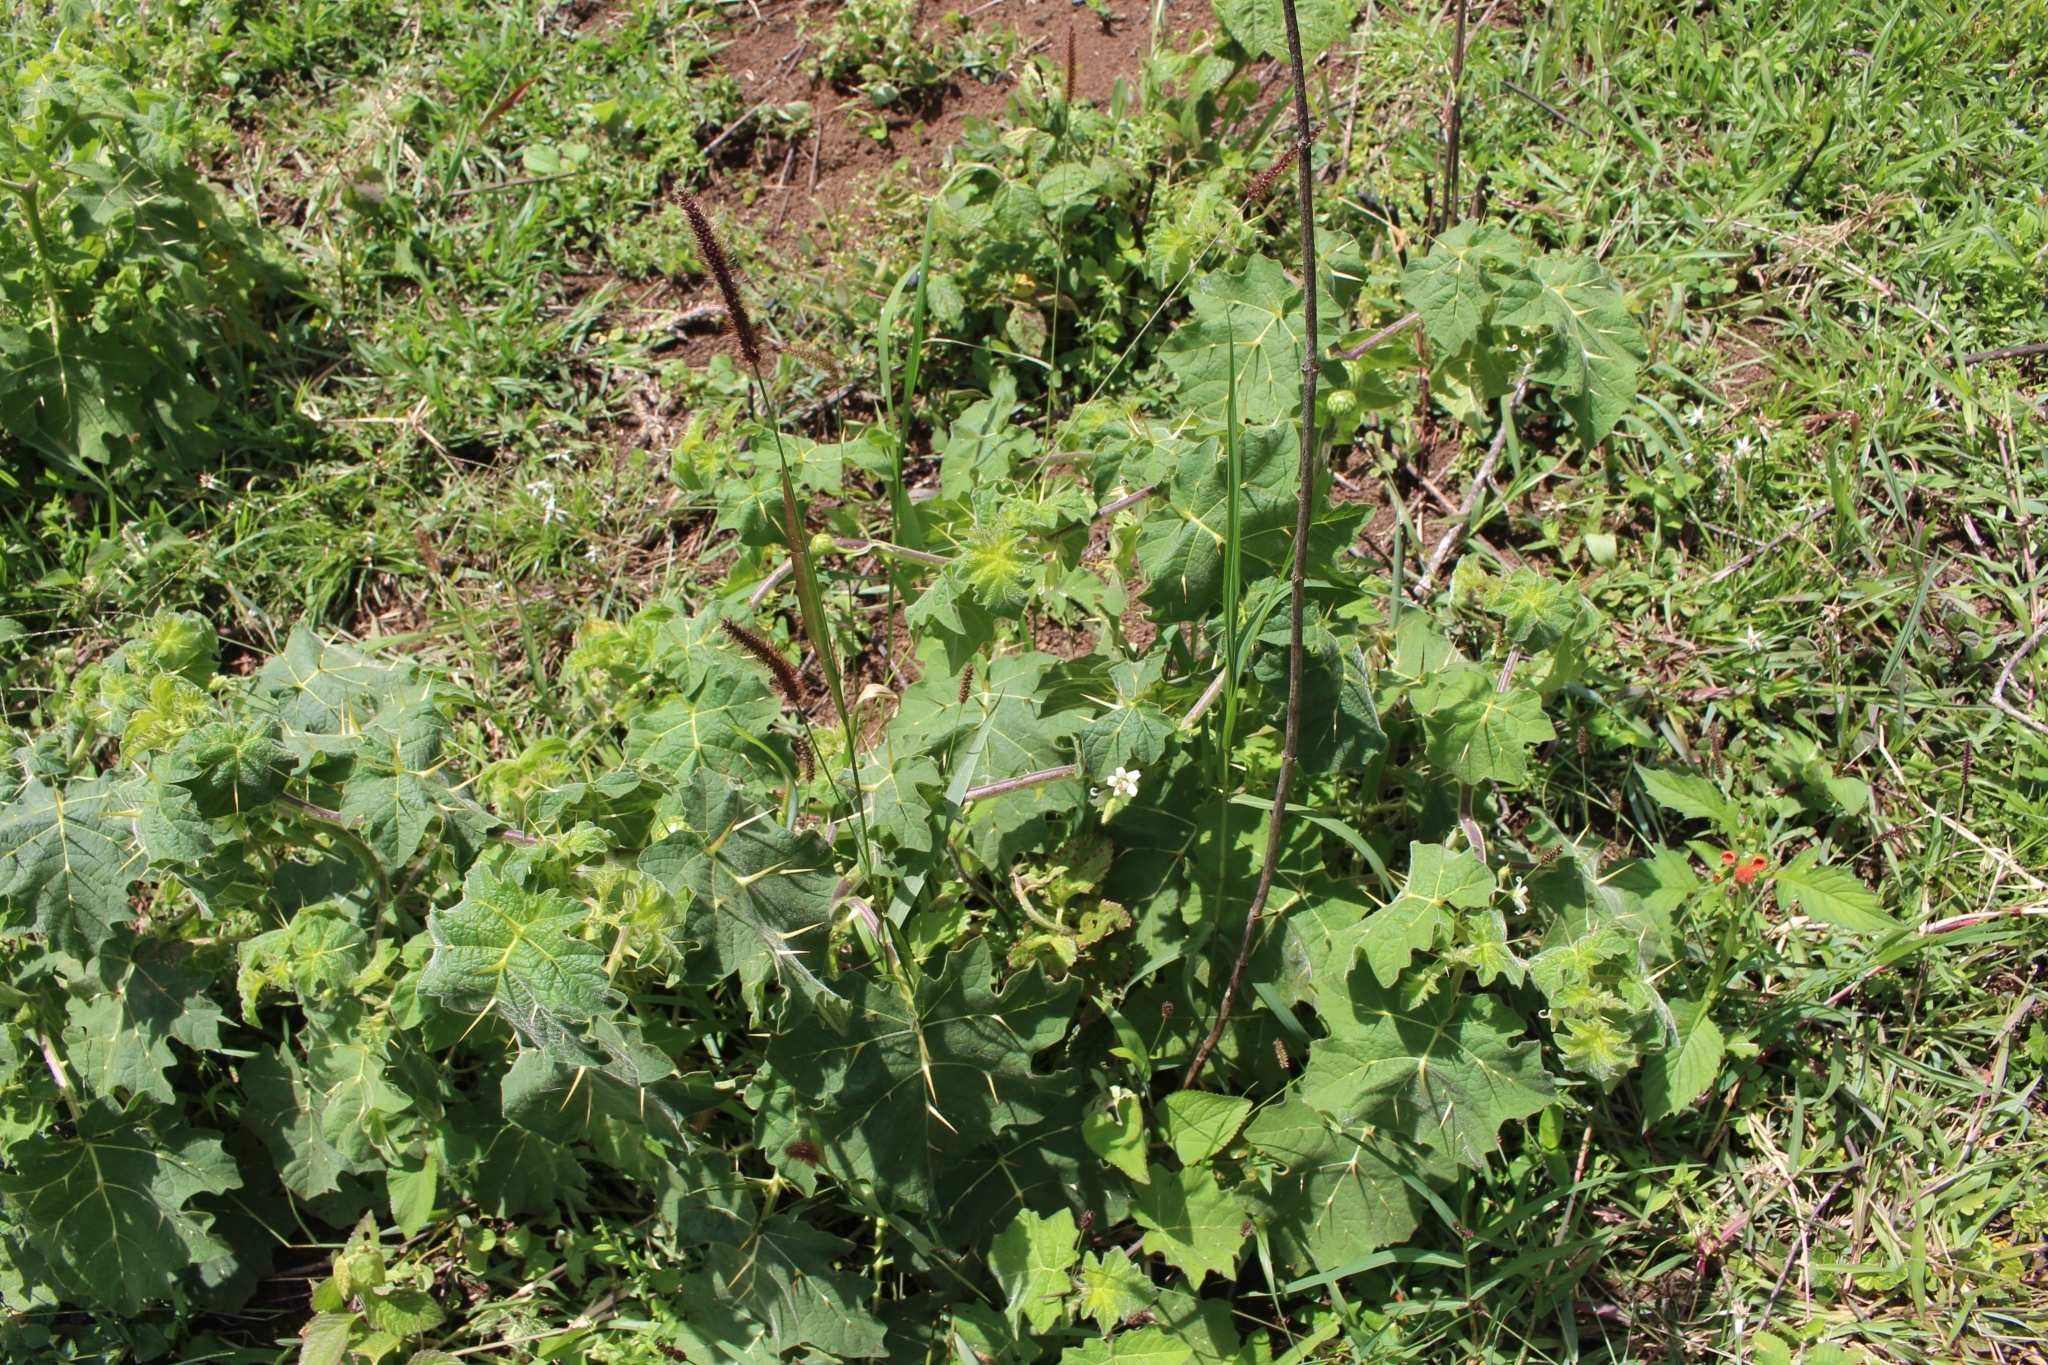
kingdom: Plantae
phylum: Tracheophyta
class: Magnoliopsida
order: Solanales
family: Solanaceae
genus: Solanum
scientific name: Solanum viarum
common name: Tropical soda apple
